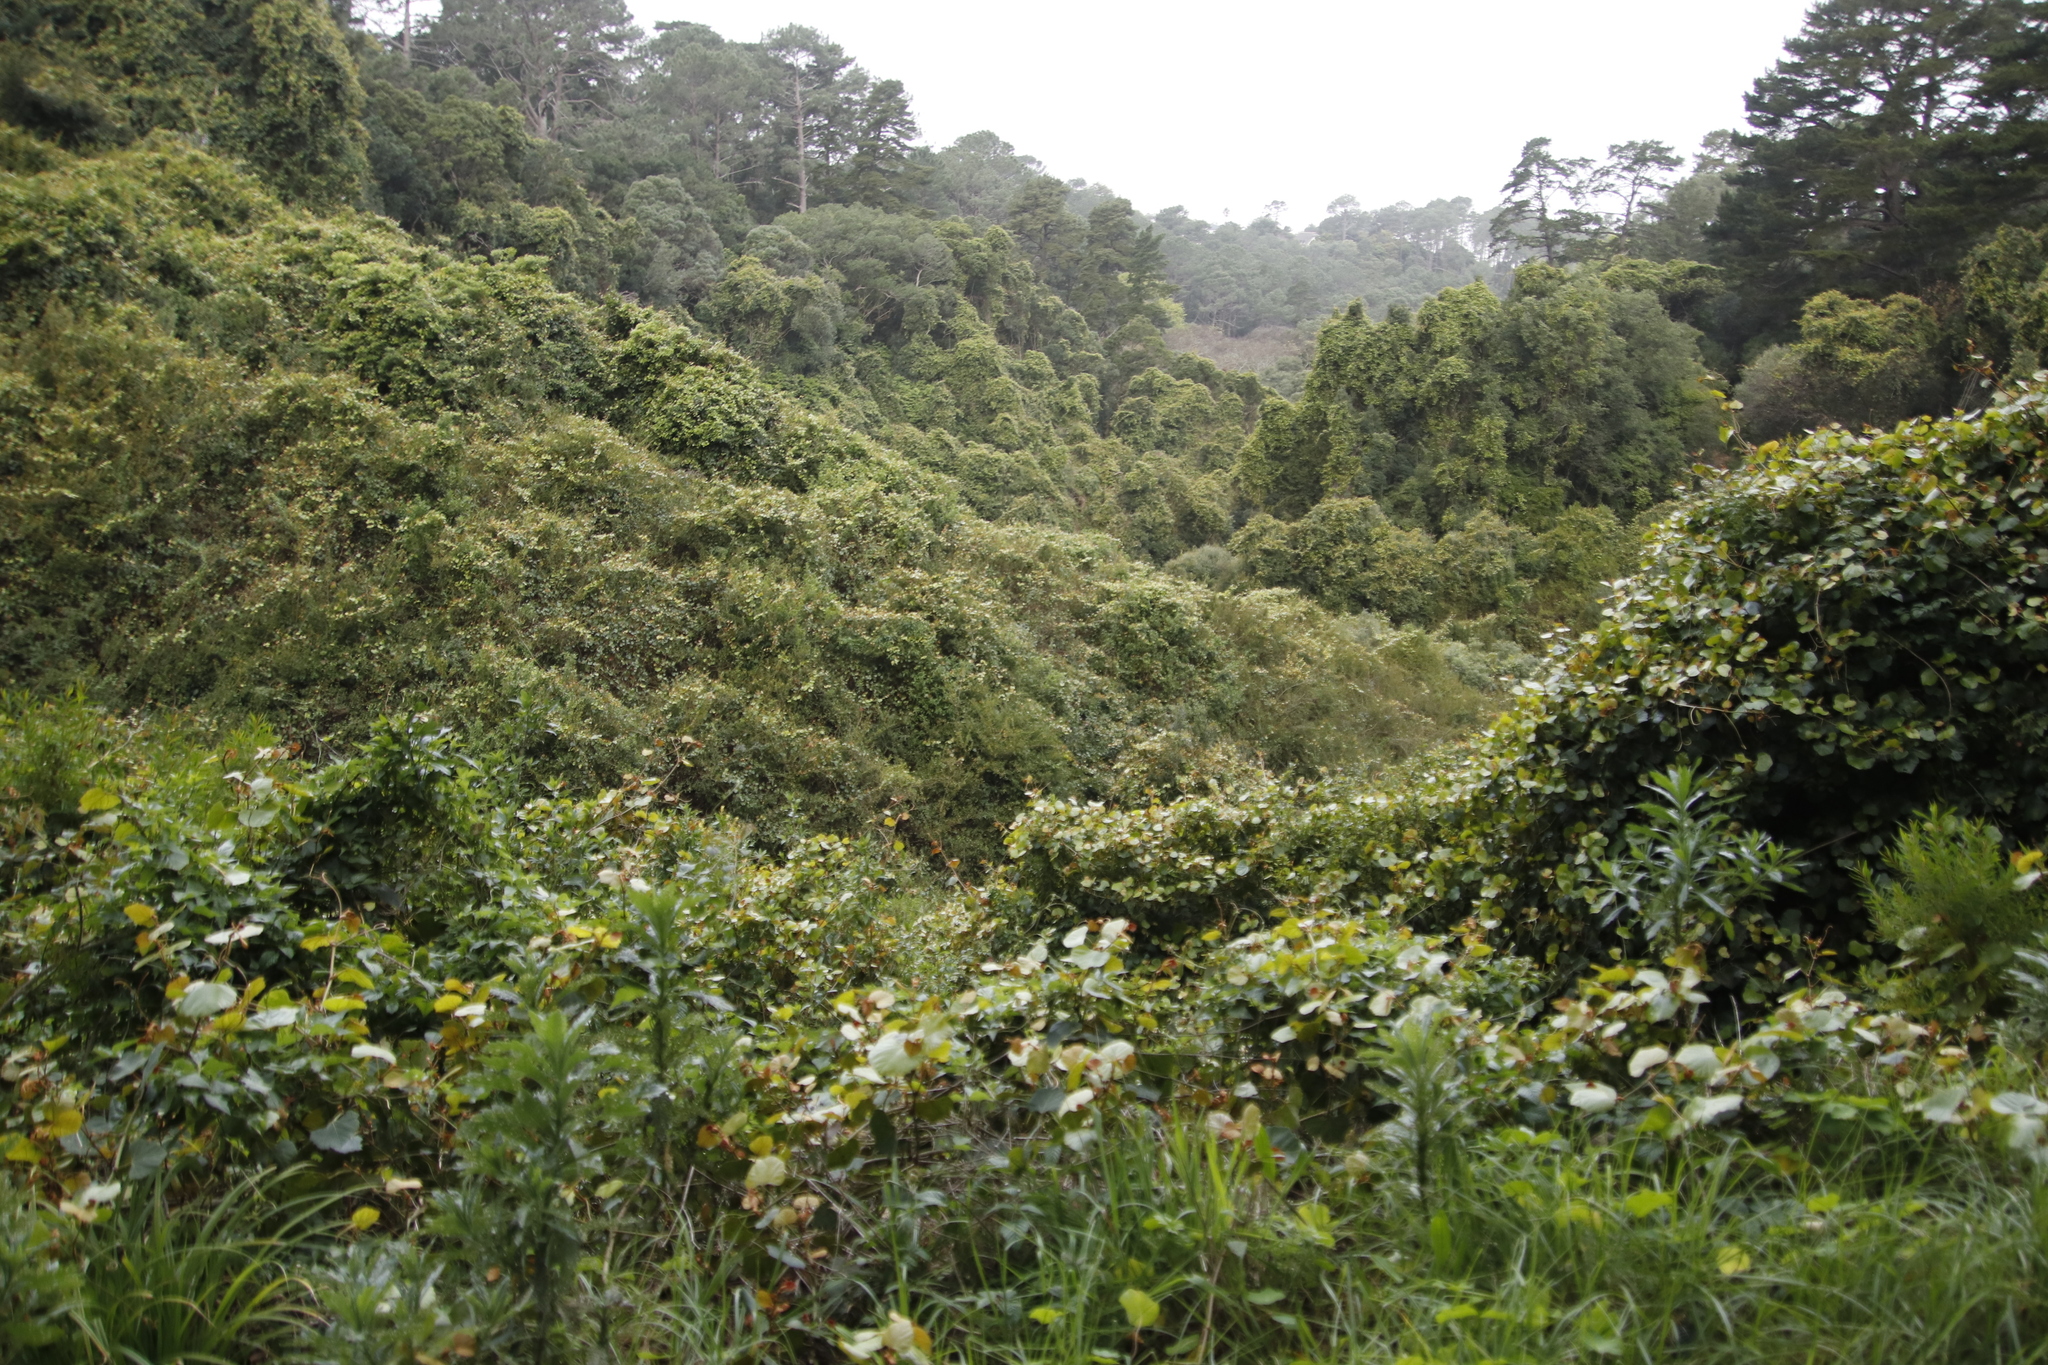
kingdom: Plantae
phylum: Tracheophyta
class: Magnoliopsida
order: Vitales
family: Vitaceae
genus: Rhoicissus
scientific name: Rhoicissus tomentosa
